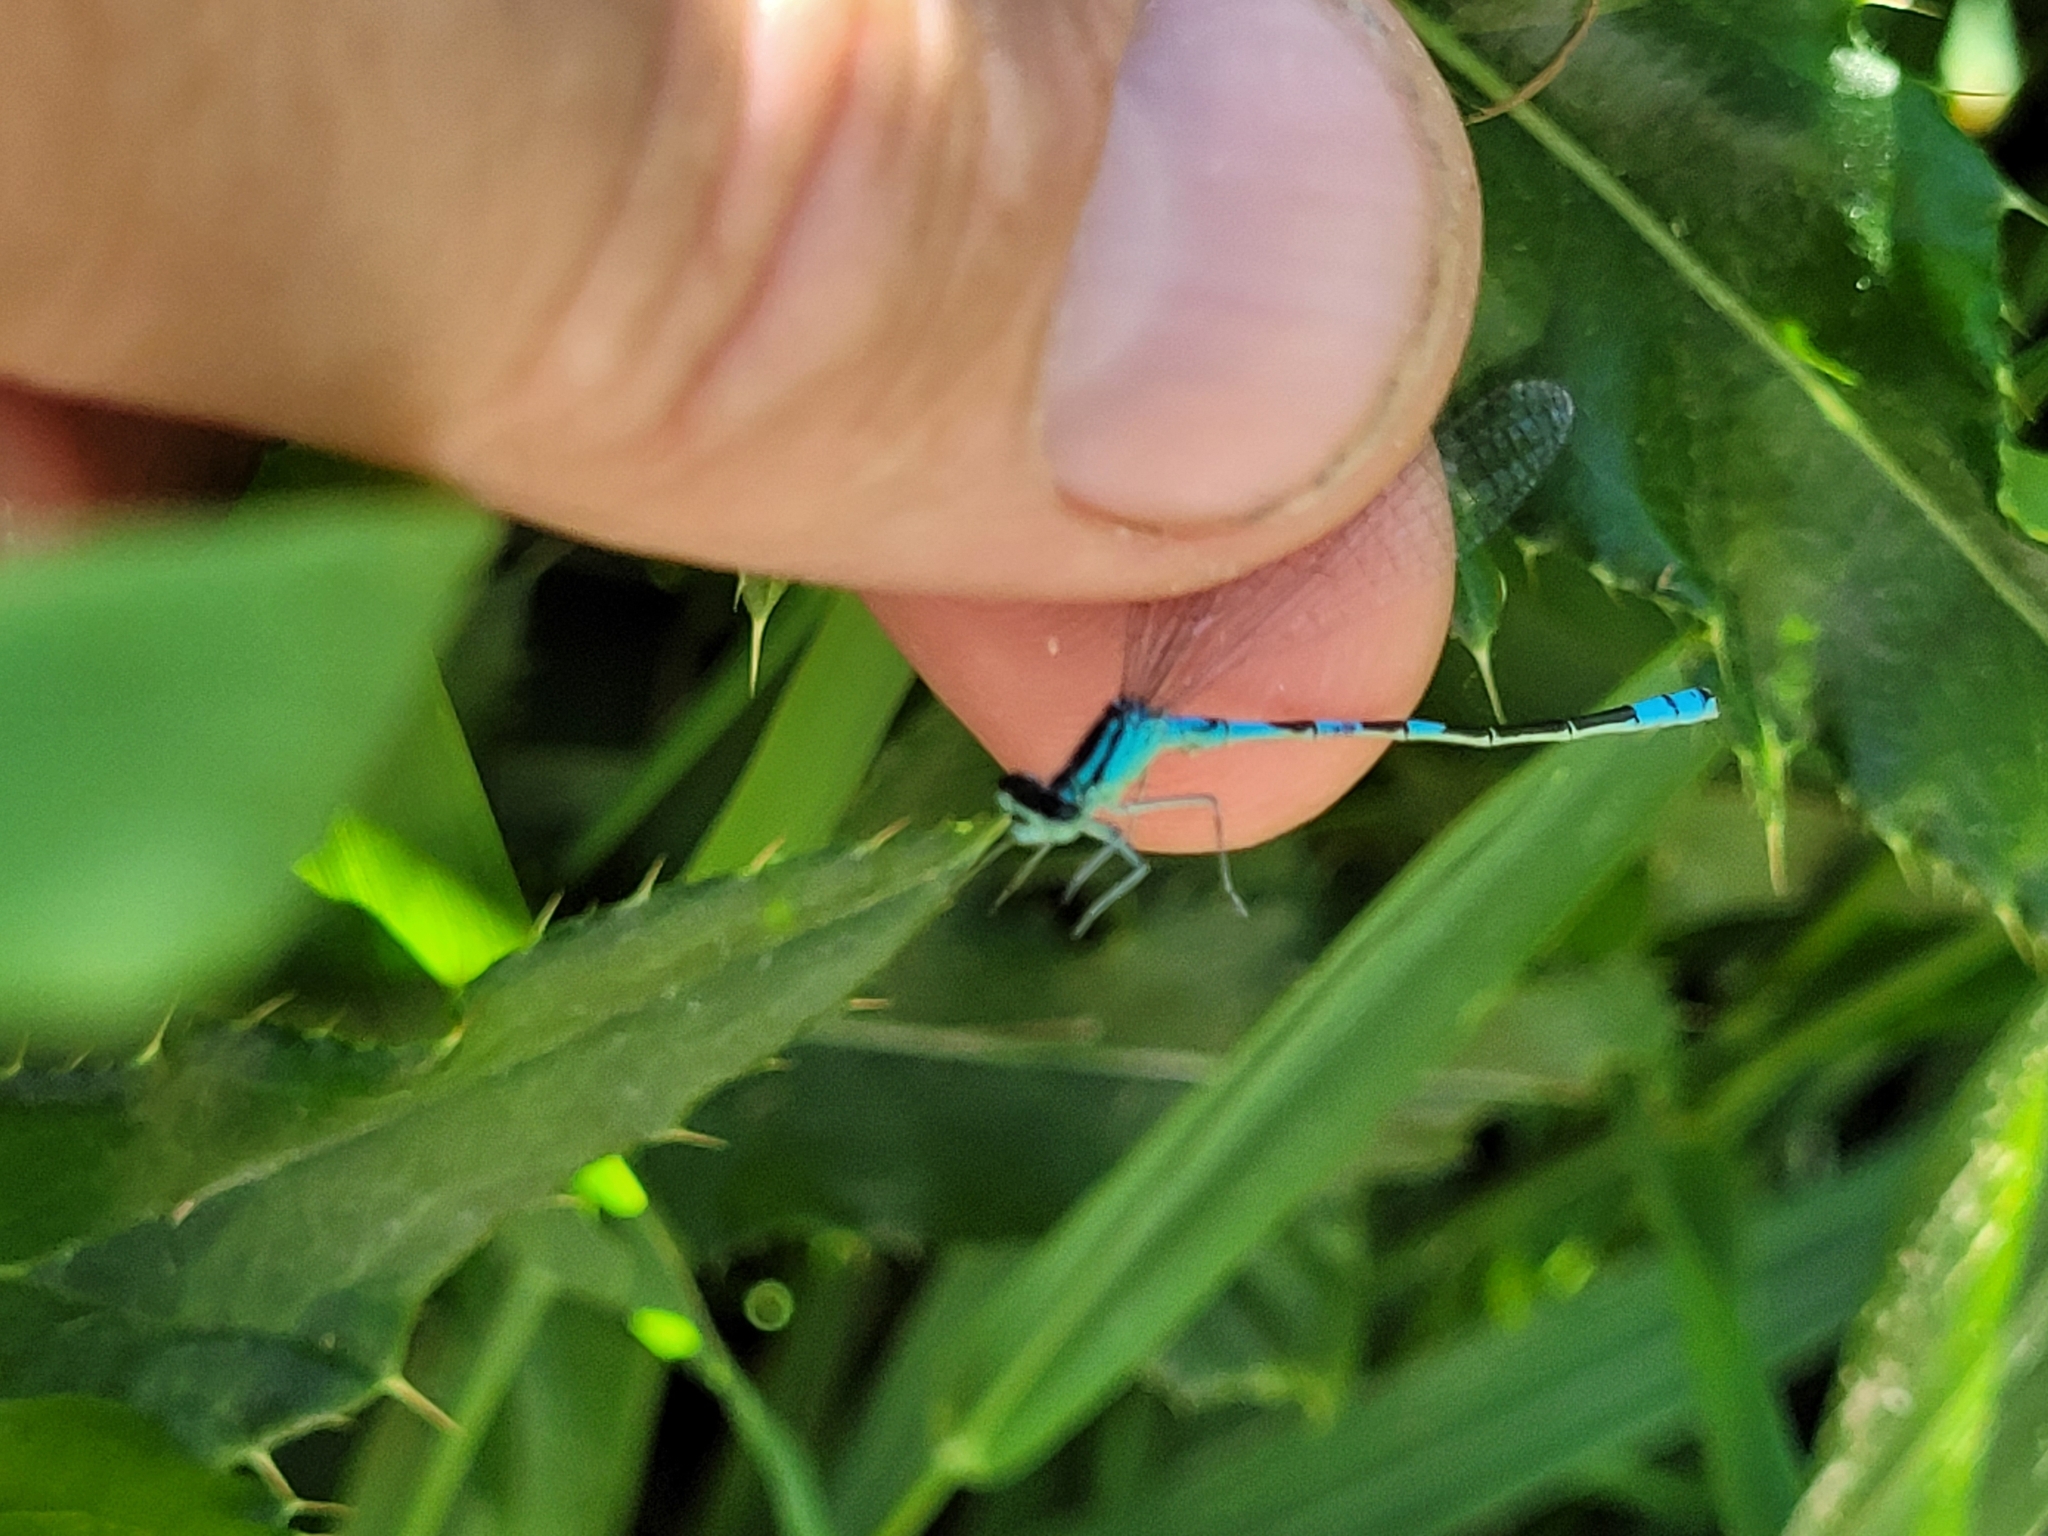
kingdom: Animalia
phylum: Arthropoda
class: Insecta
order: Odonata
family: Coenagrionidae
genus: Coenagrion
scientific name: Coenagrion resolutum
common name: Taiga bluet
